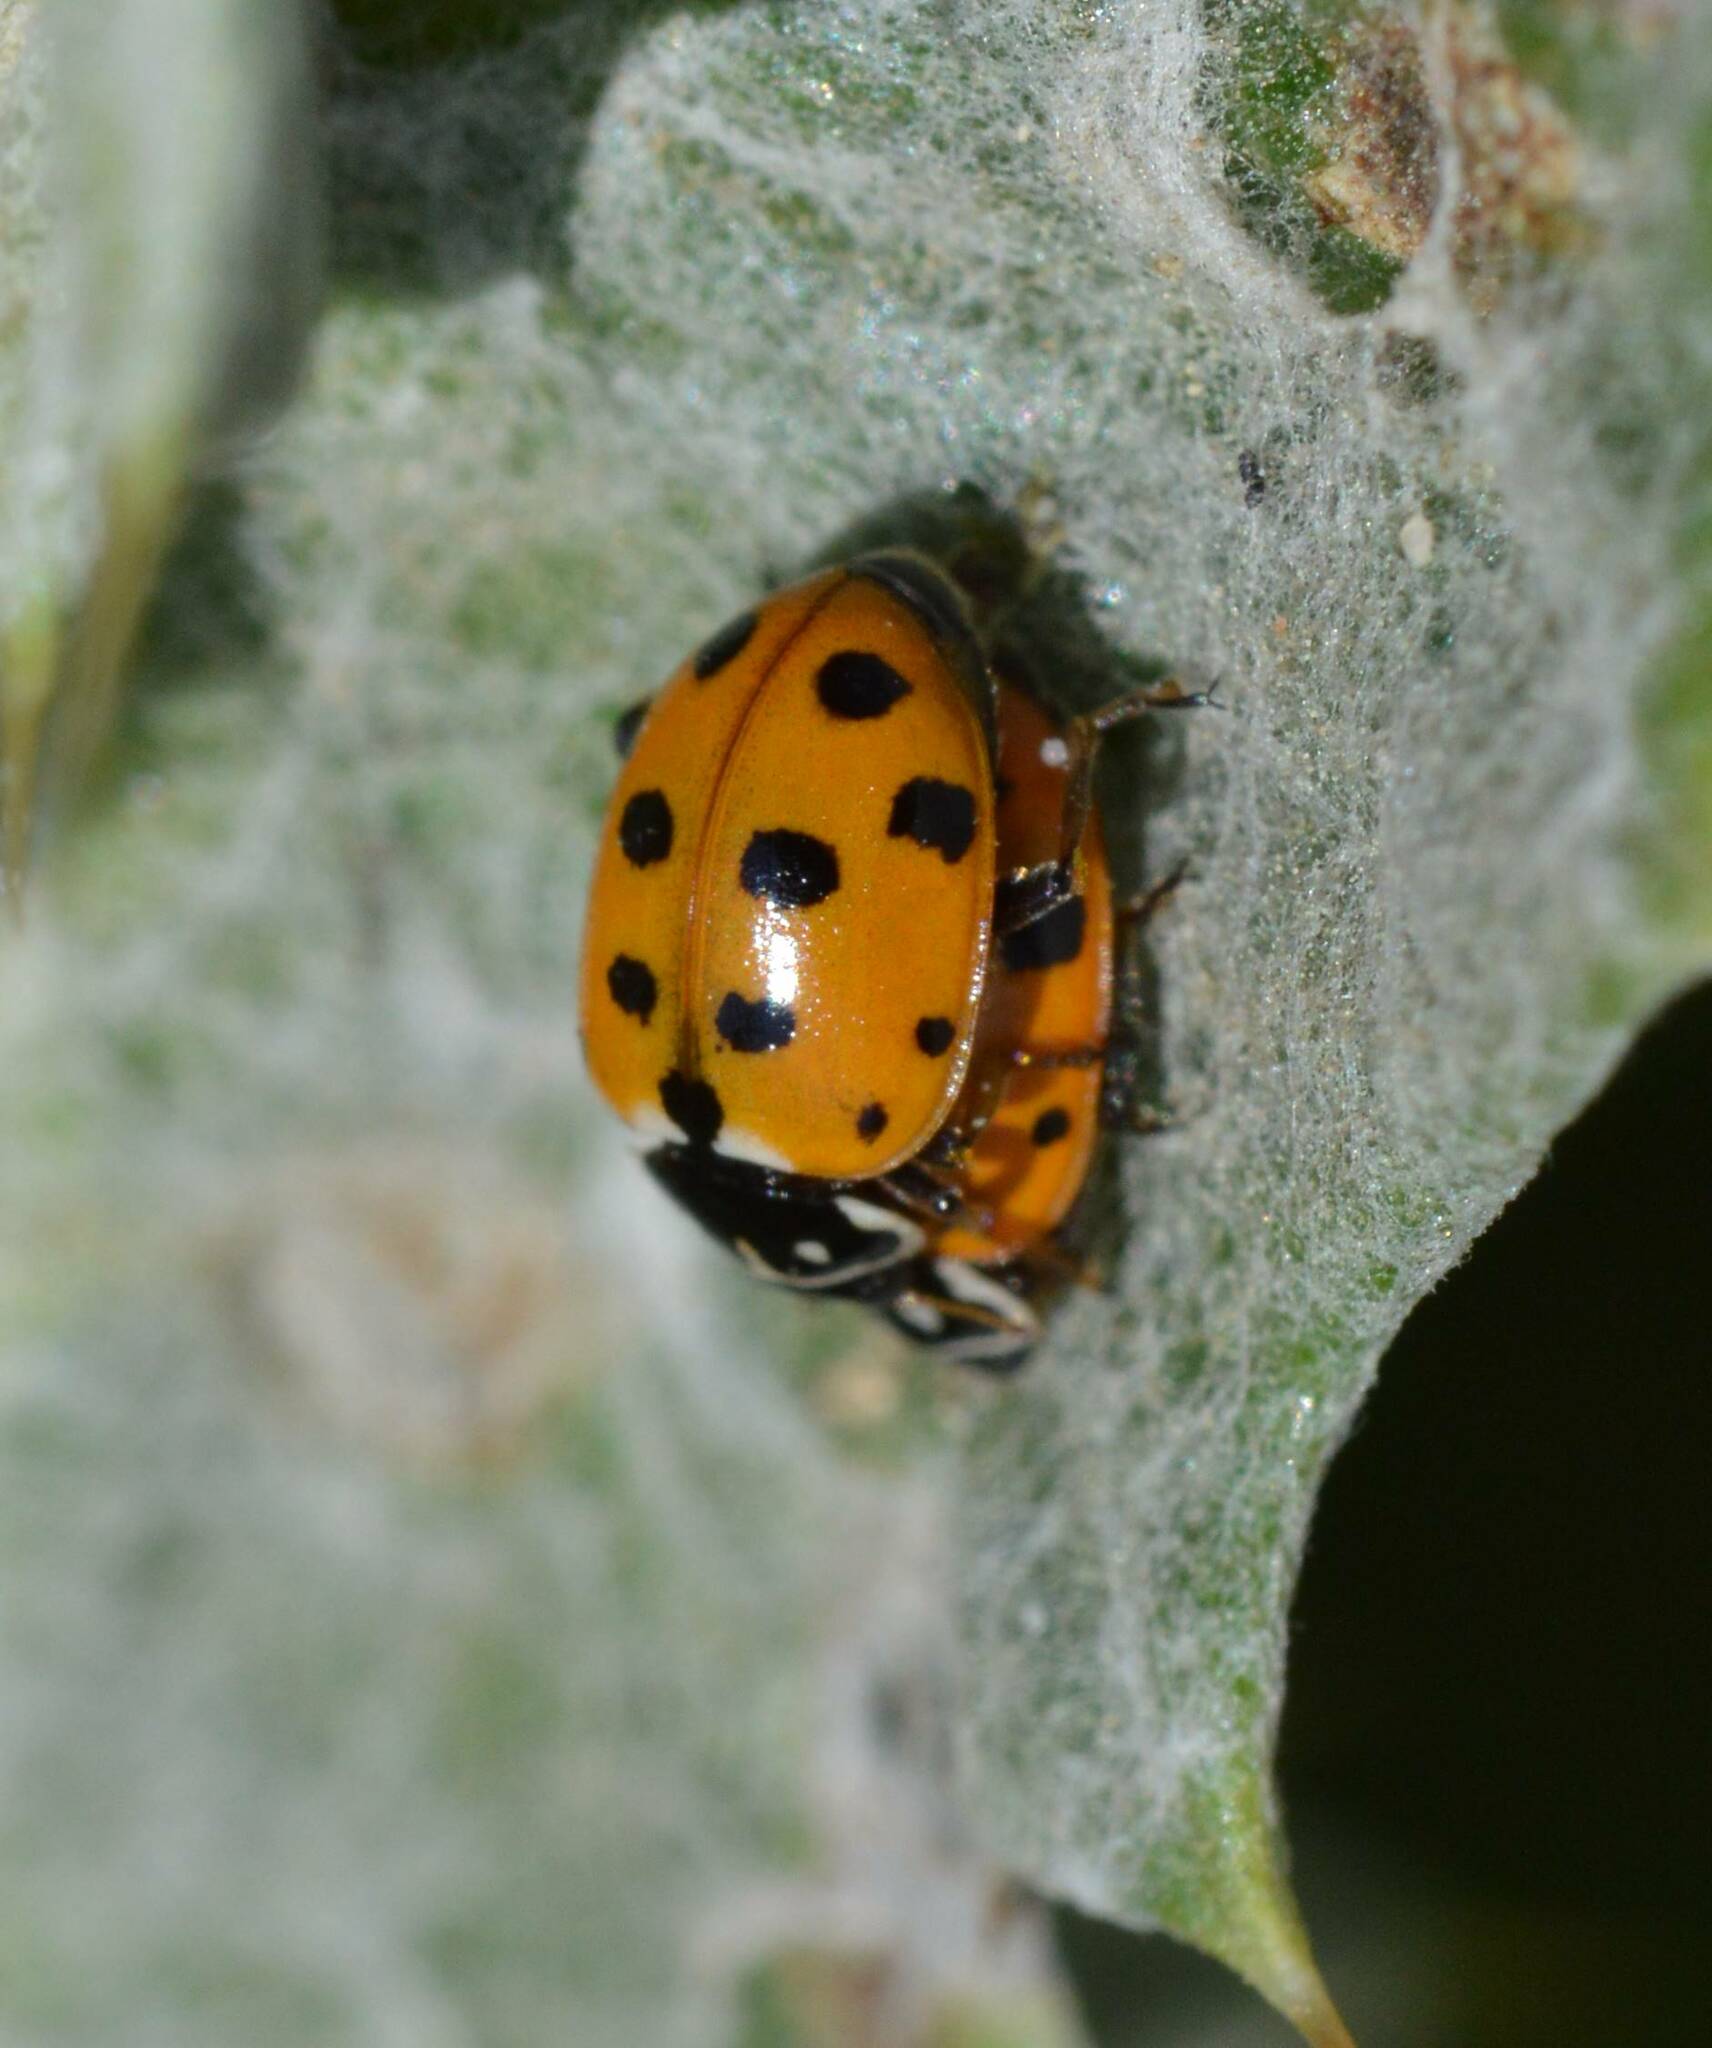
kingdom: Animalia
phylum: Arthropoda
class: Insecta
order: Coleoptera
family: Coccinellidae
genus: Hippodamia
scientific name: Hippodamia variegata
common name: Ladybird beetle
